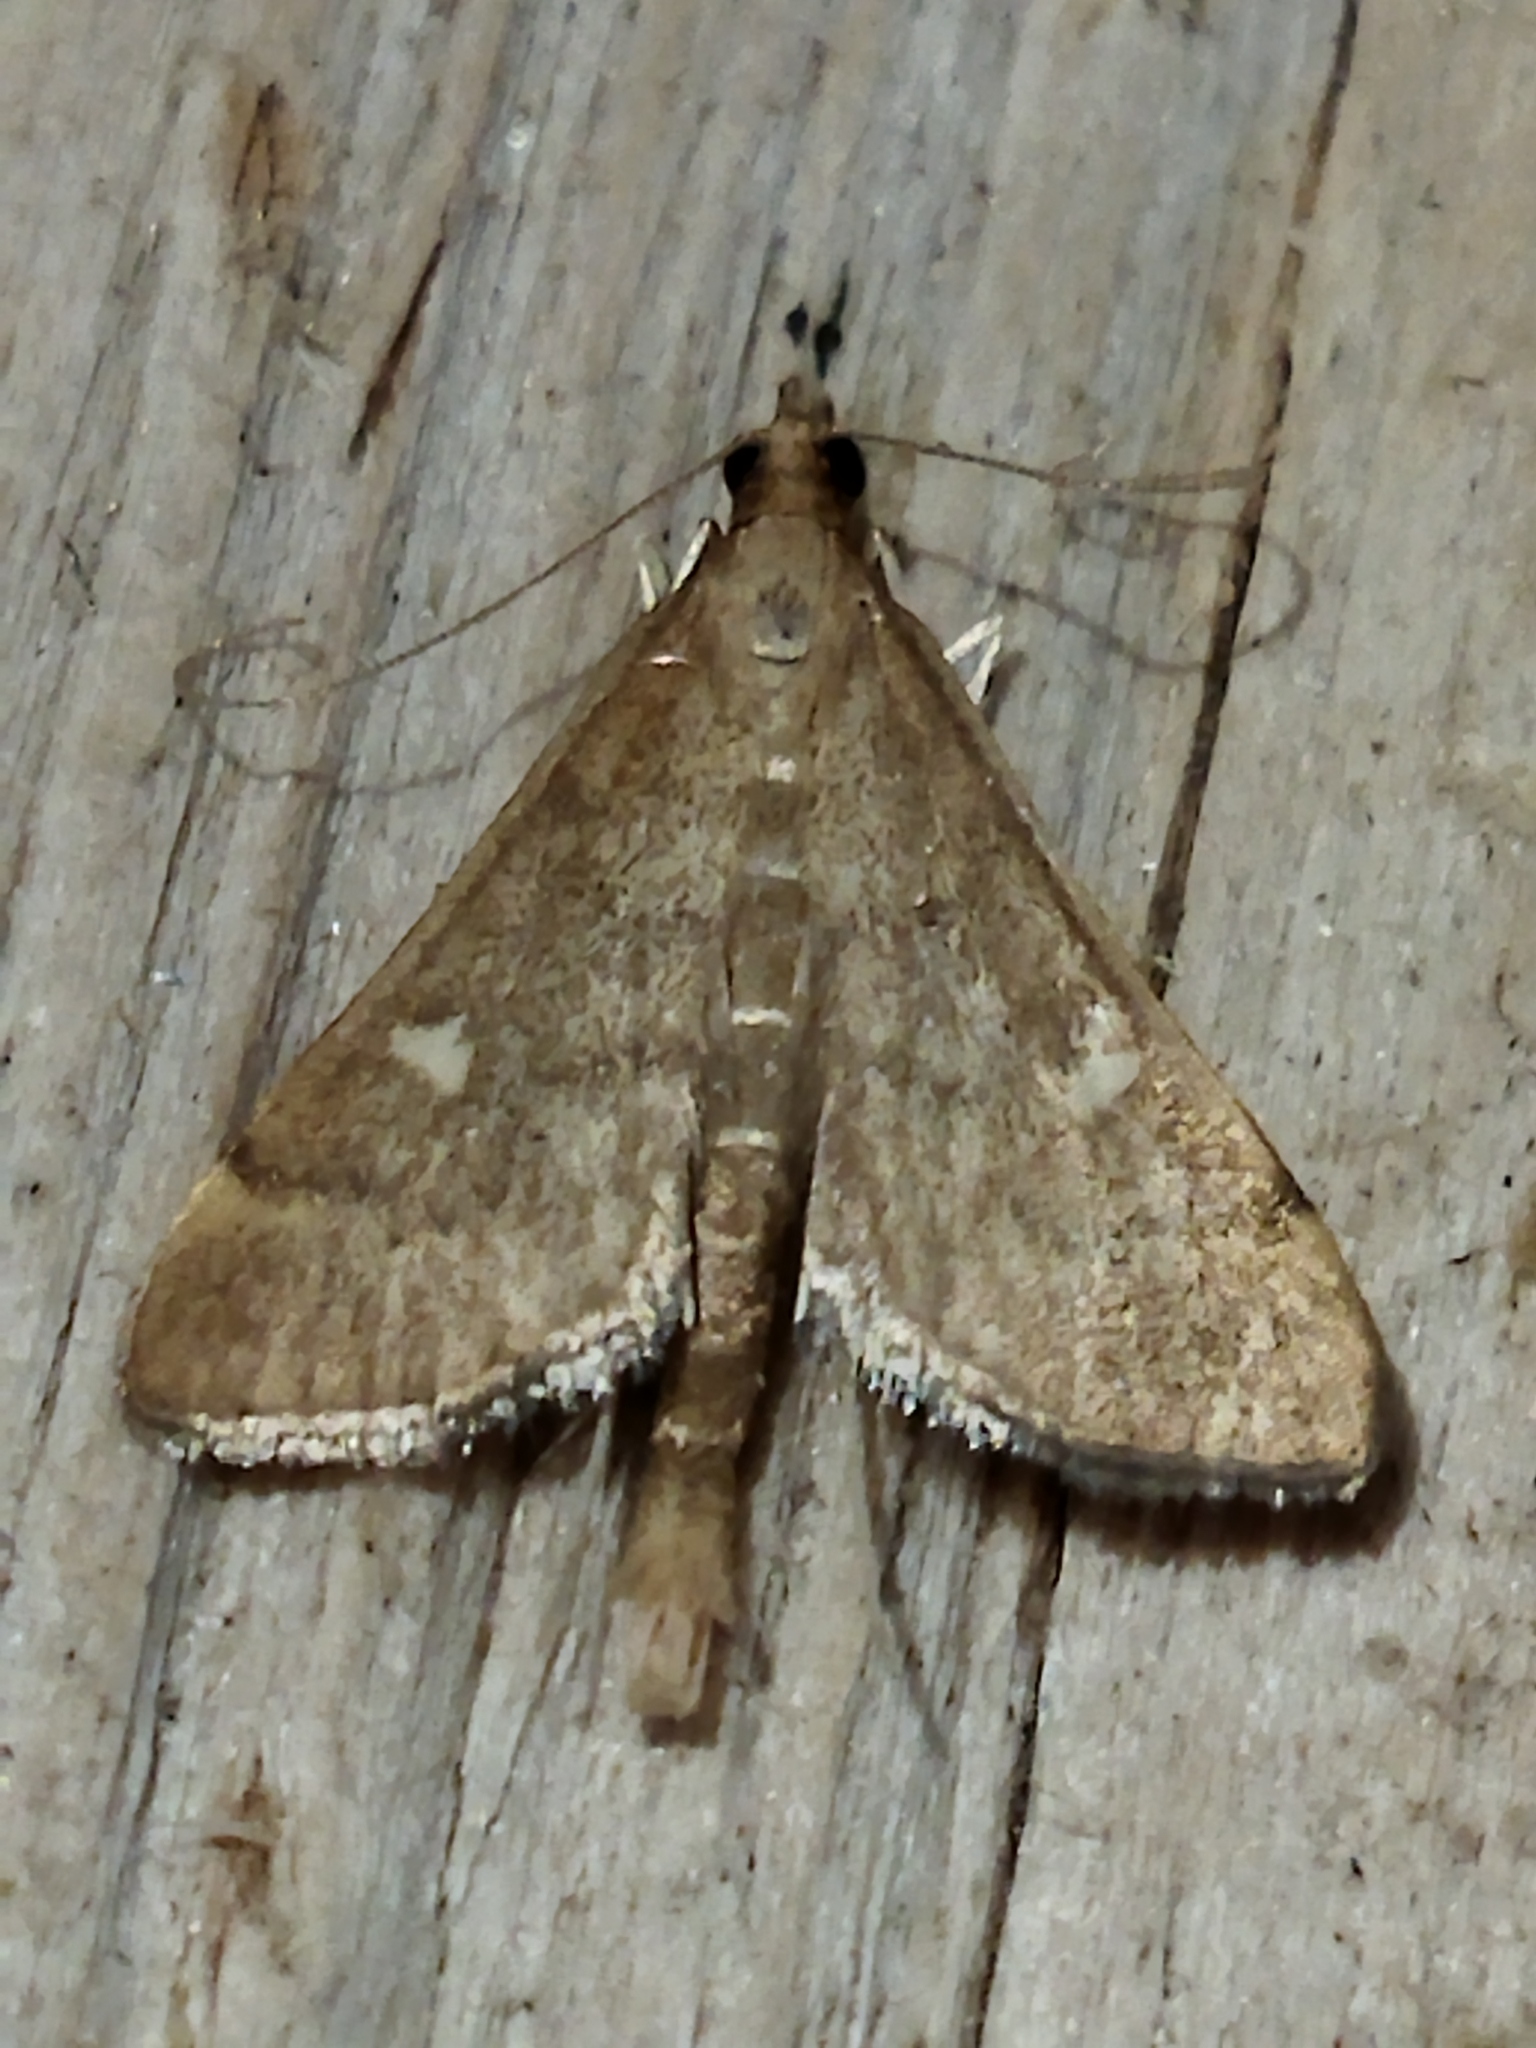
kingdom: Animalia
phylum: Arthropoda
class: Insecta
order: Lepidoptera
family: Crambidae
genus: Stenia
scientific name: Stenia Dolicharthria punctalis
